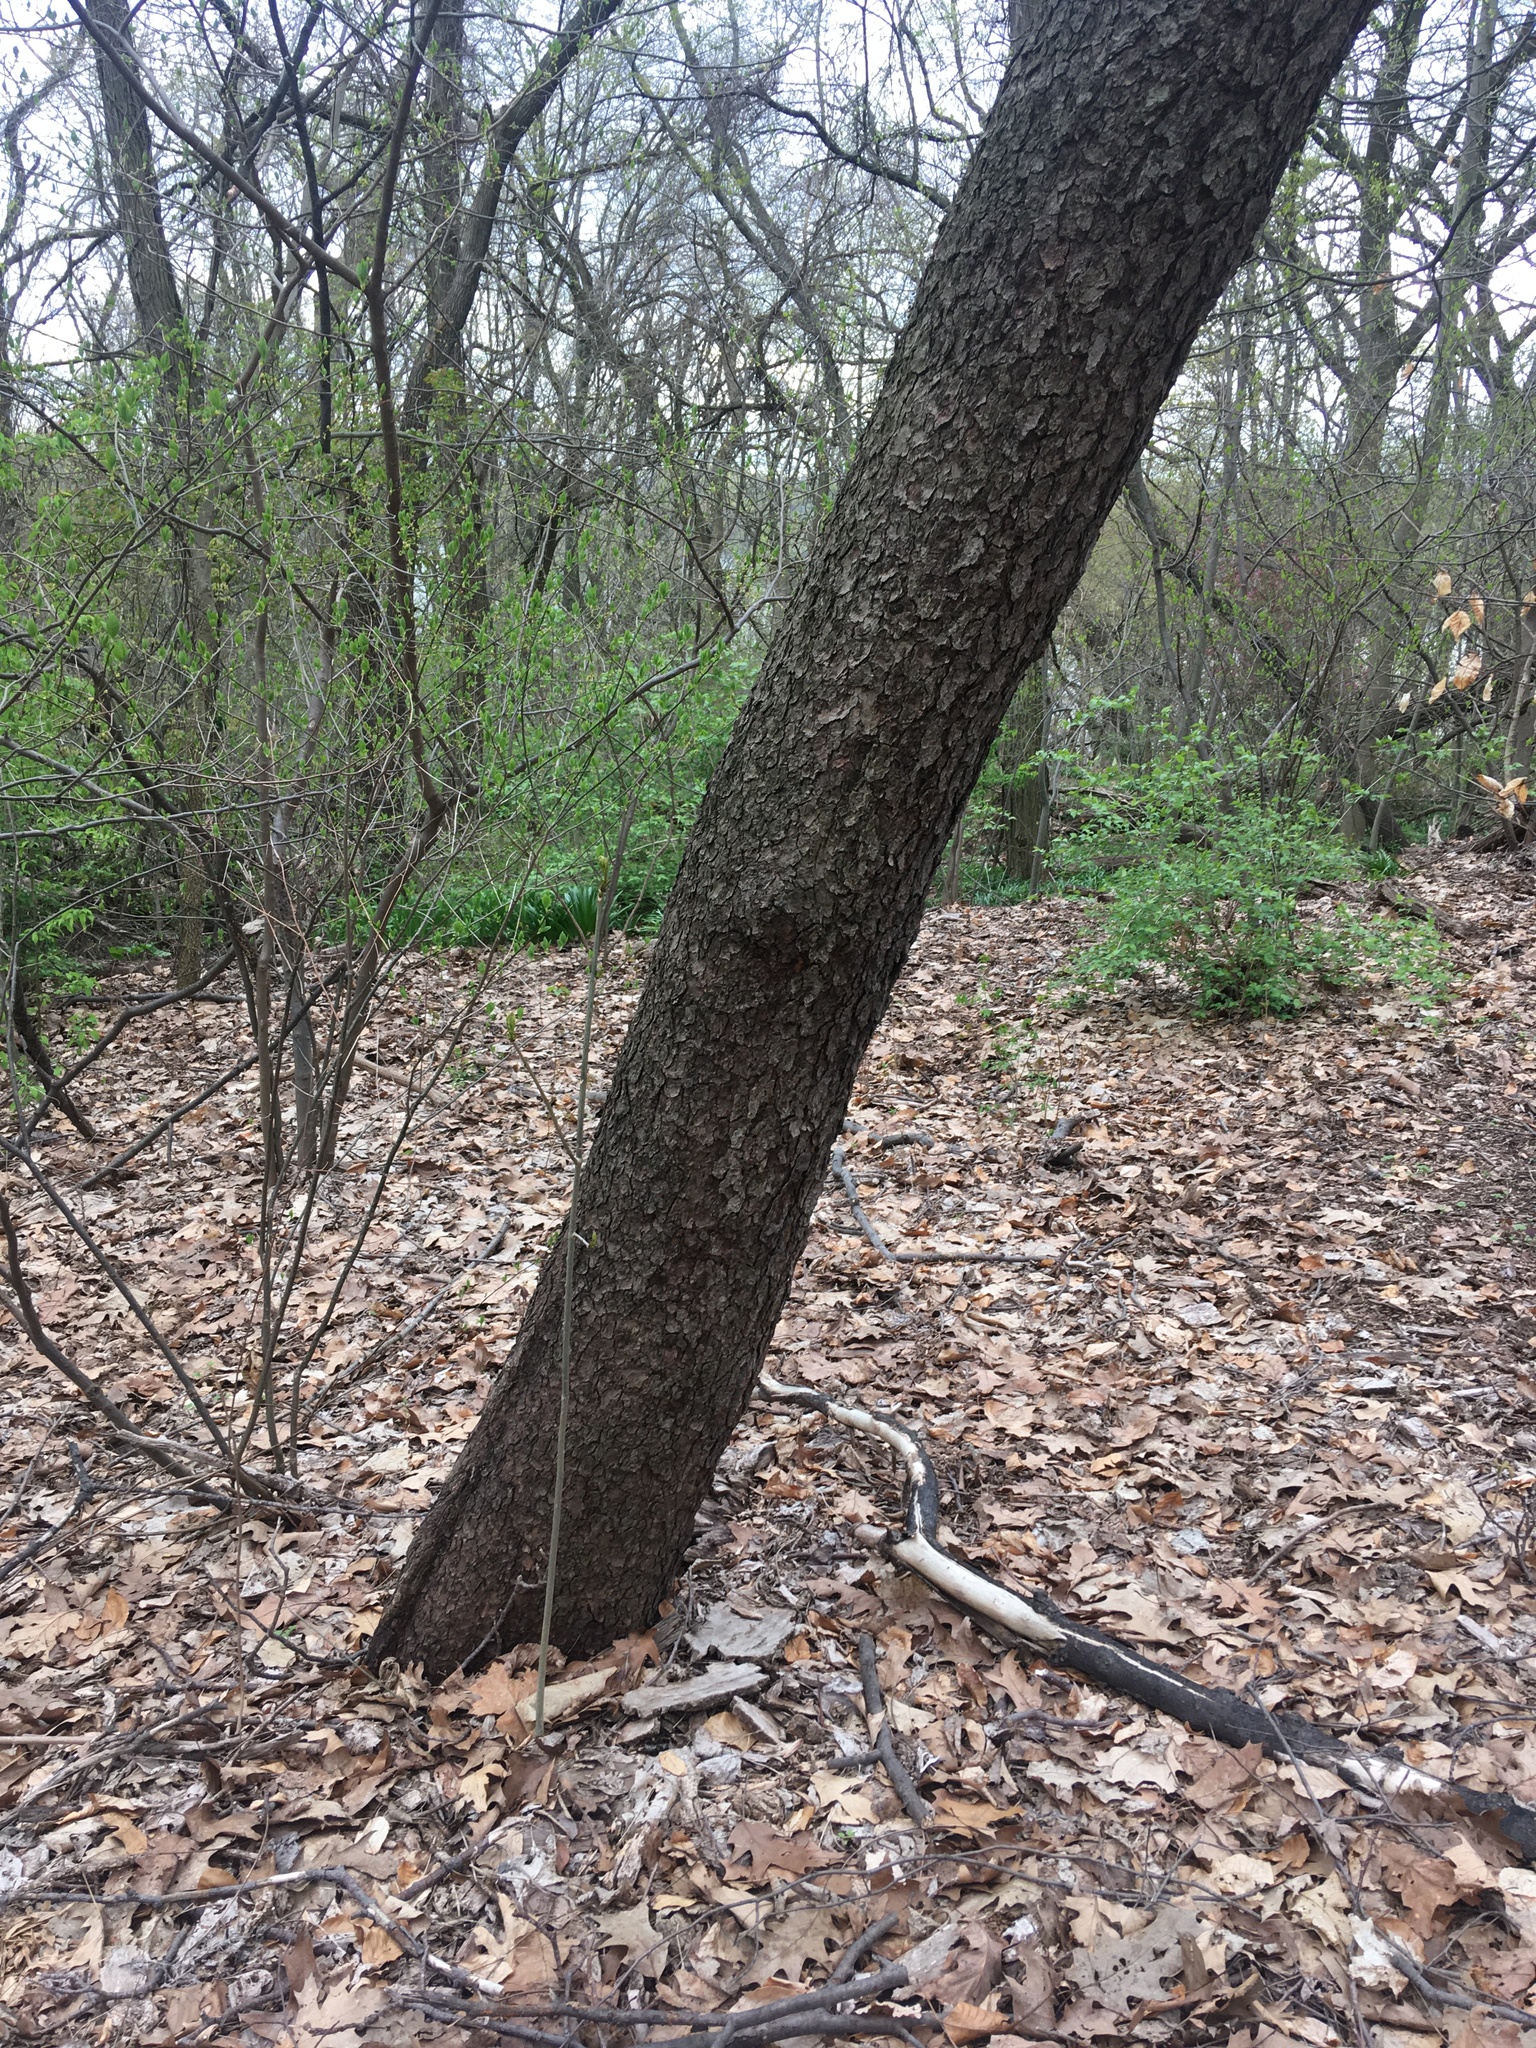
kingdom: Plantae
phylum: Tracheophyta
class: Magnoliopsida
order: Rosales
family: Rosaceae
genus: Prunus
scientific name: Prunus serotina
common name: Black cherry
